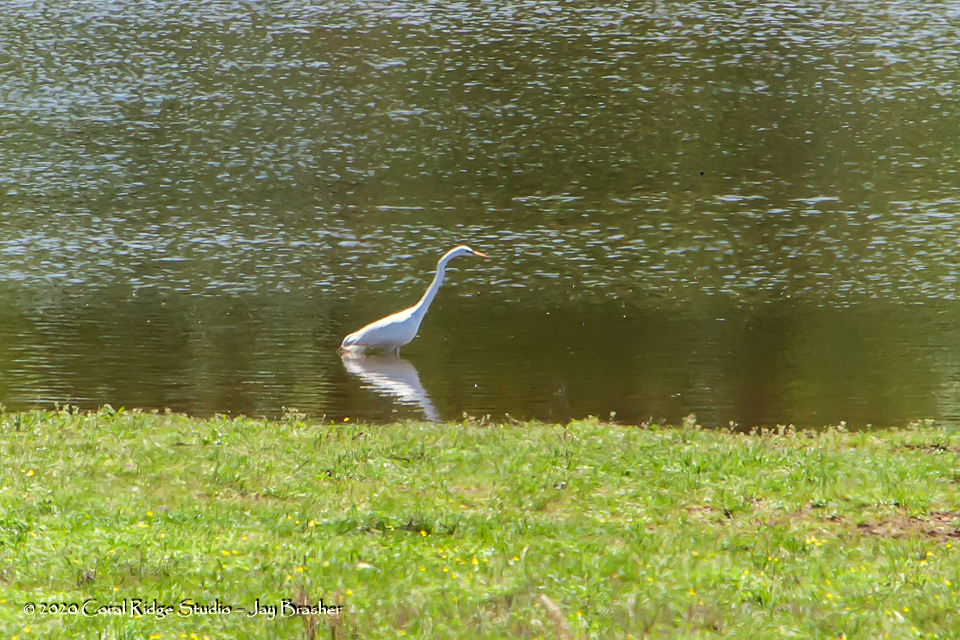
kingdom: Animalia
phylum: Chordata
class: Aves
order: Pelecaniformes
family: Ardeidae
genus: Ardea
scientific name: Ardea alba
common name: Great egret
